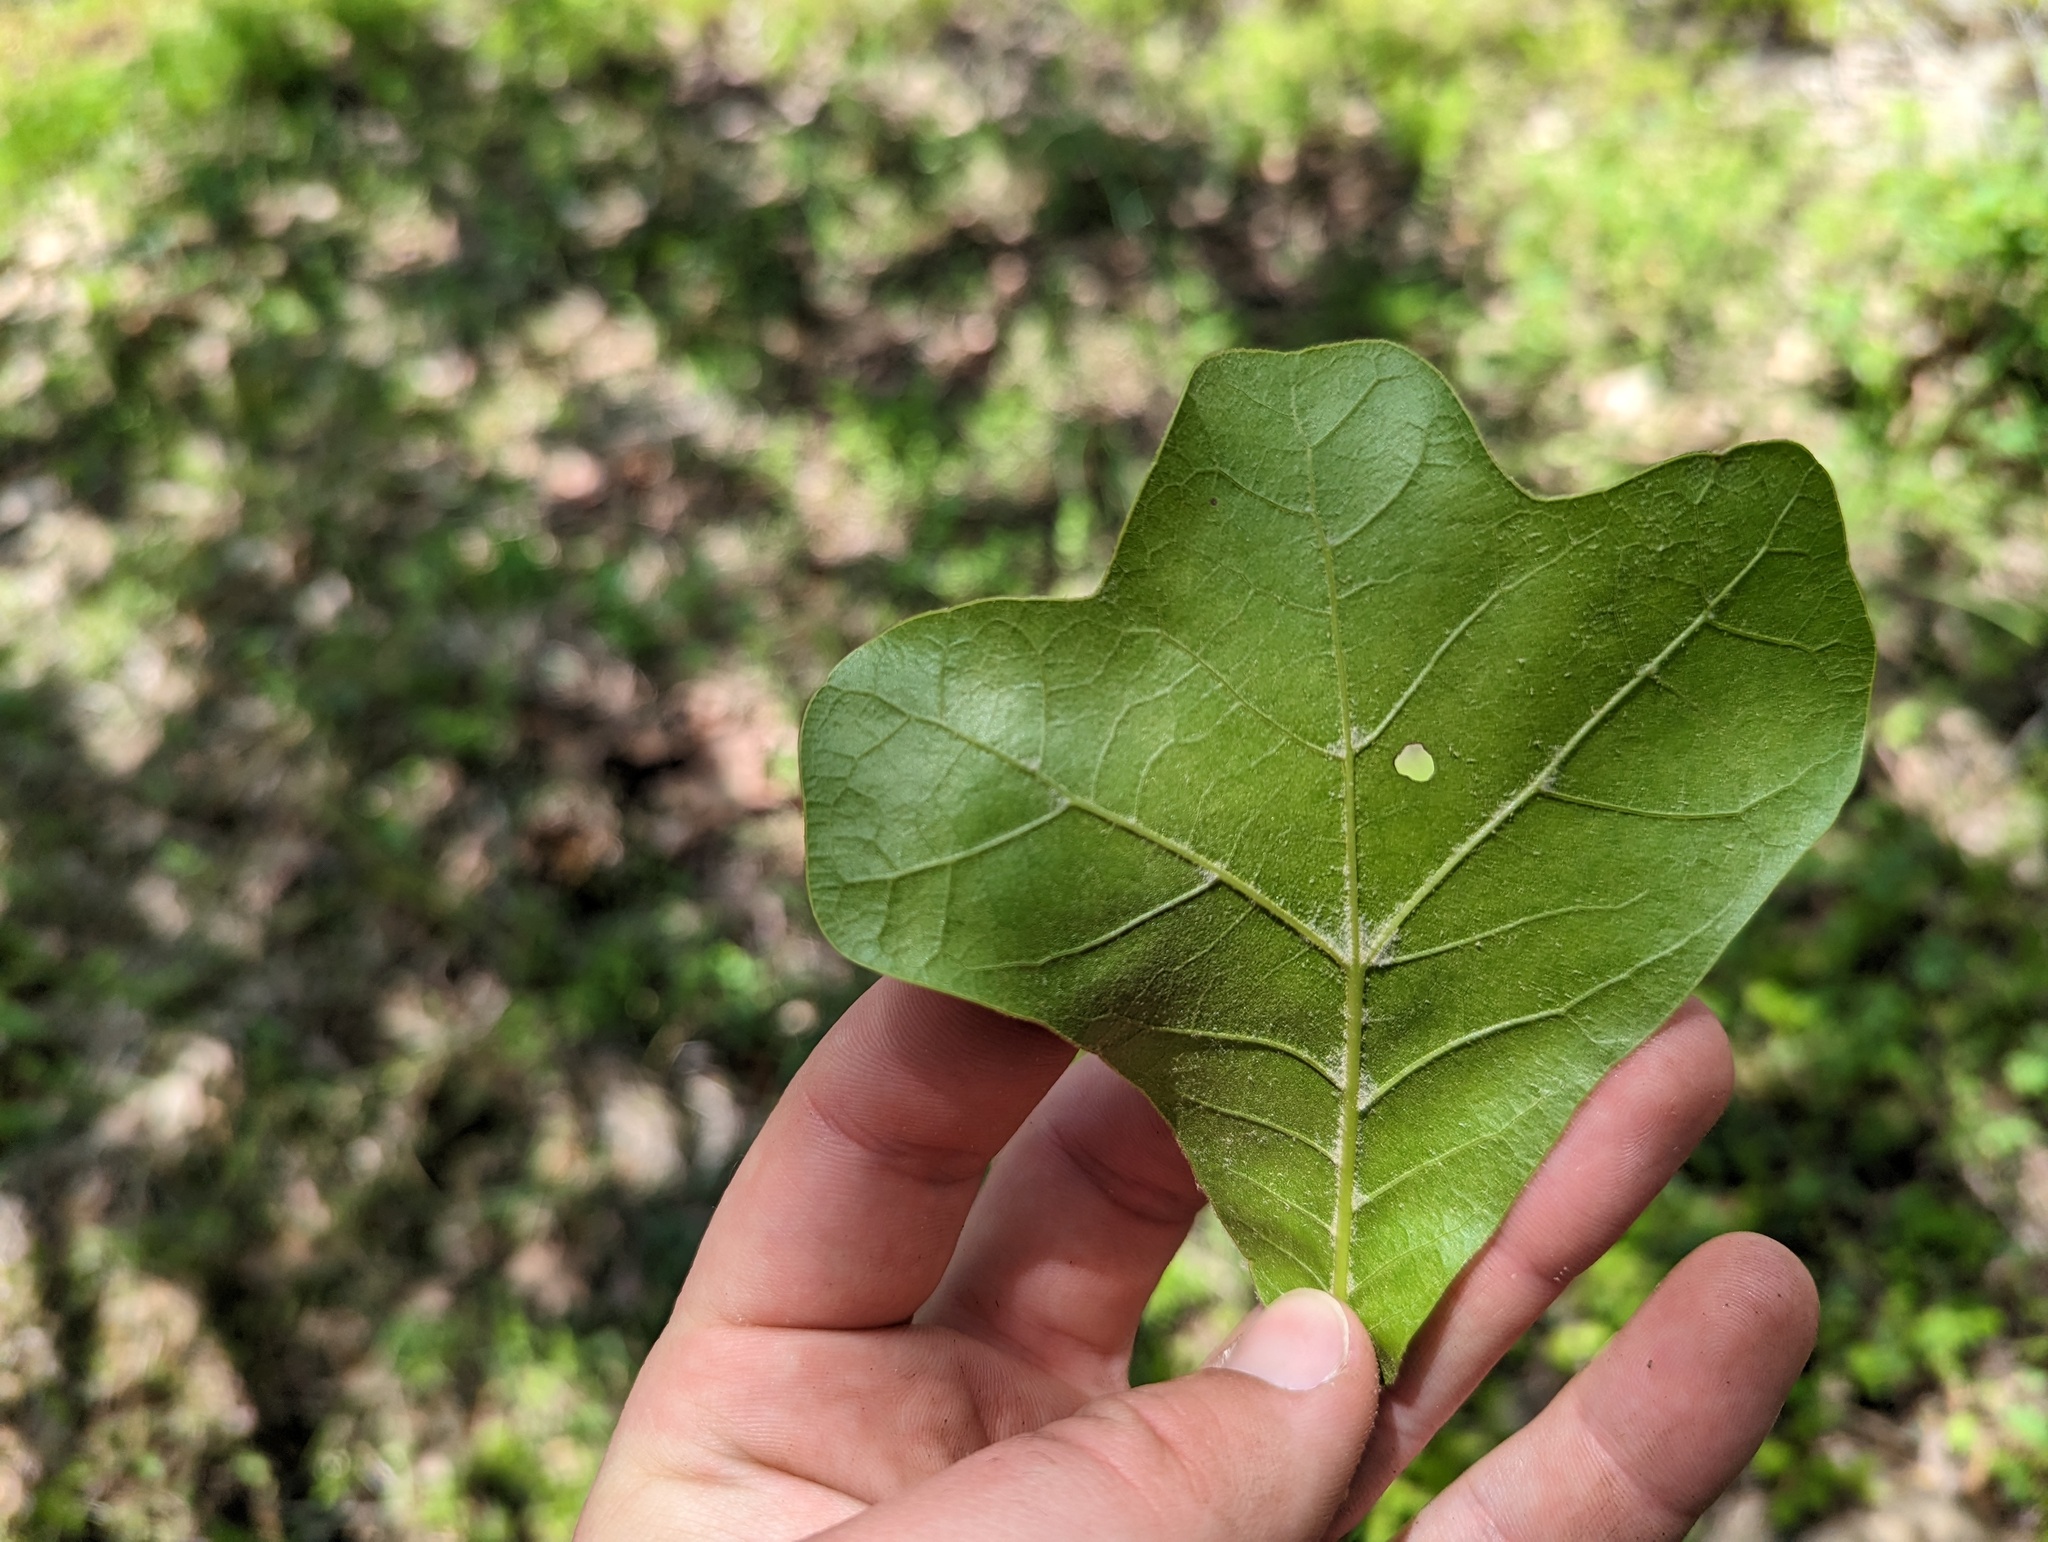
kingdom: Plantae
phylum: Tracheophyta
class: Magnoliopsida
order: Fagales
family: Fagaceae
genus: Quercus
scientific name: Quercus marilandica
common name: Blackjack oak
